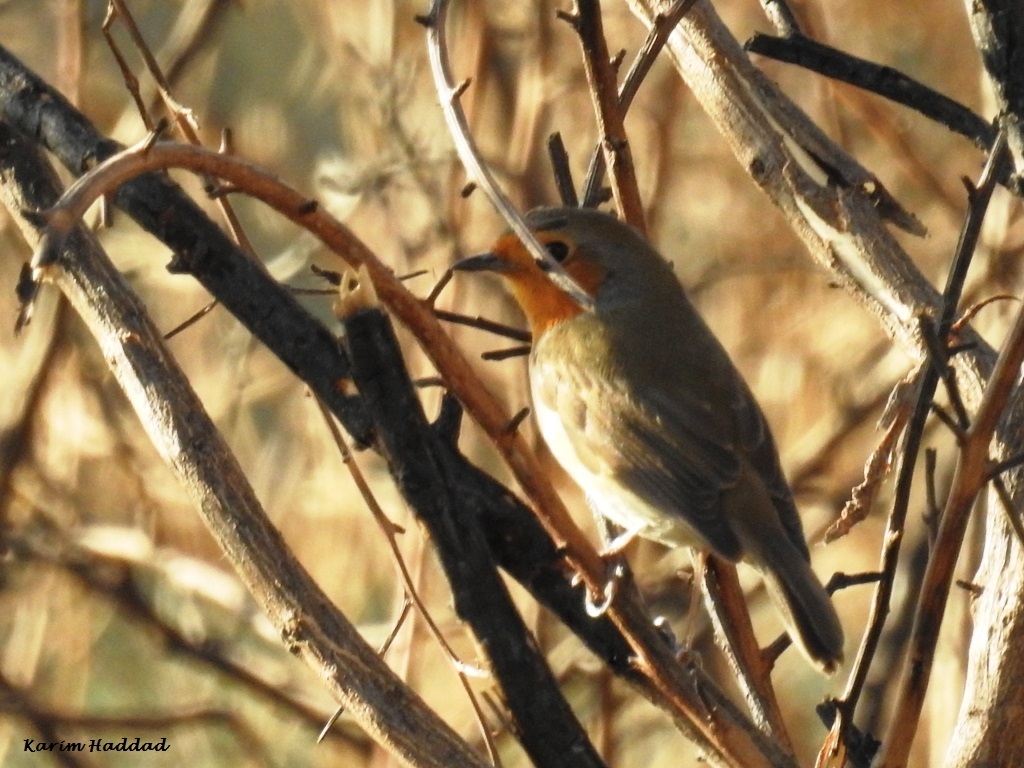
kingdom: Animalia
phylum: Chordata
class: Aves
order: Passeriformes
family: Muscicapidae
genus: Erithacus
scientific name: Erithacus rubecula
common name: European robin
